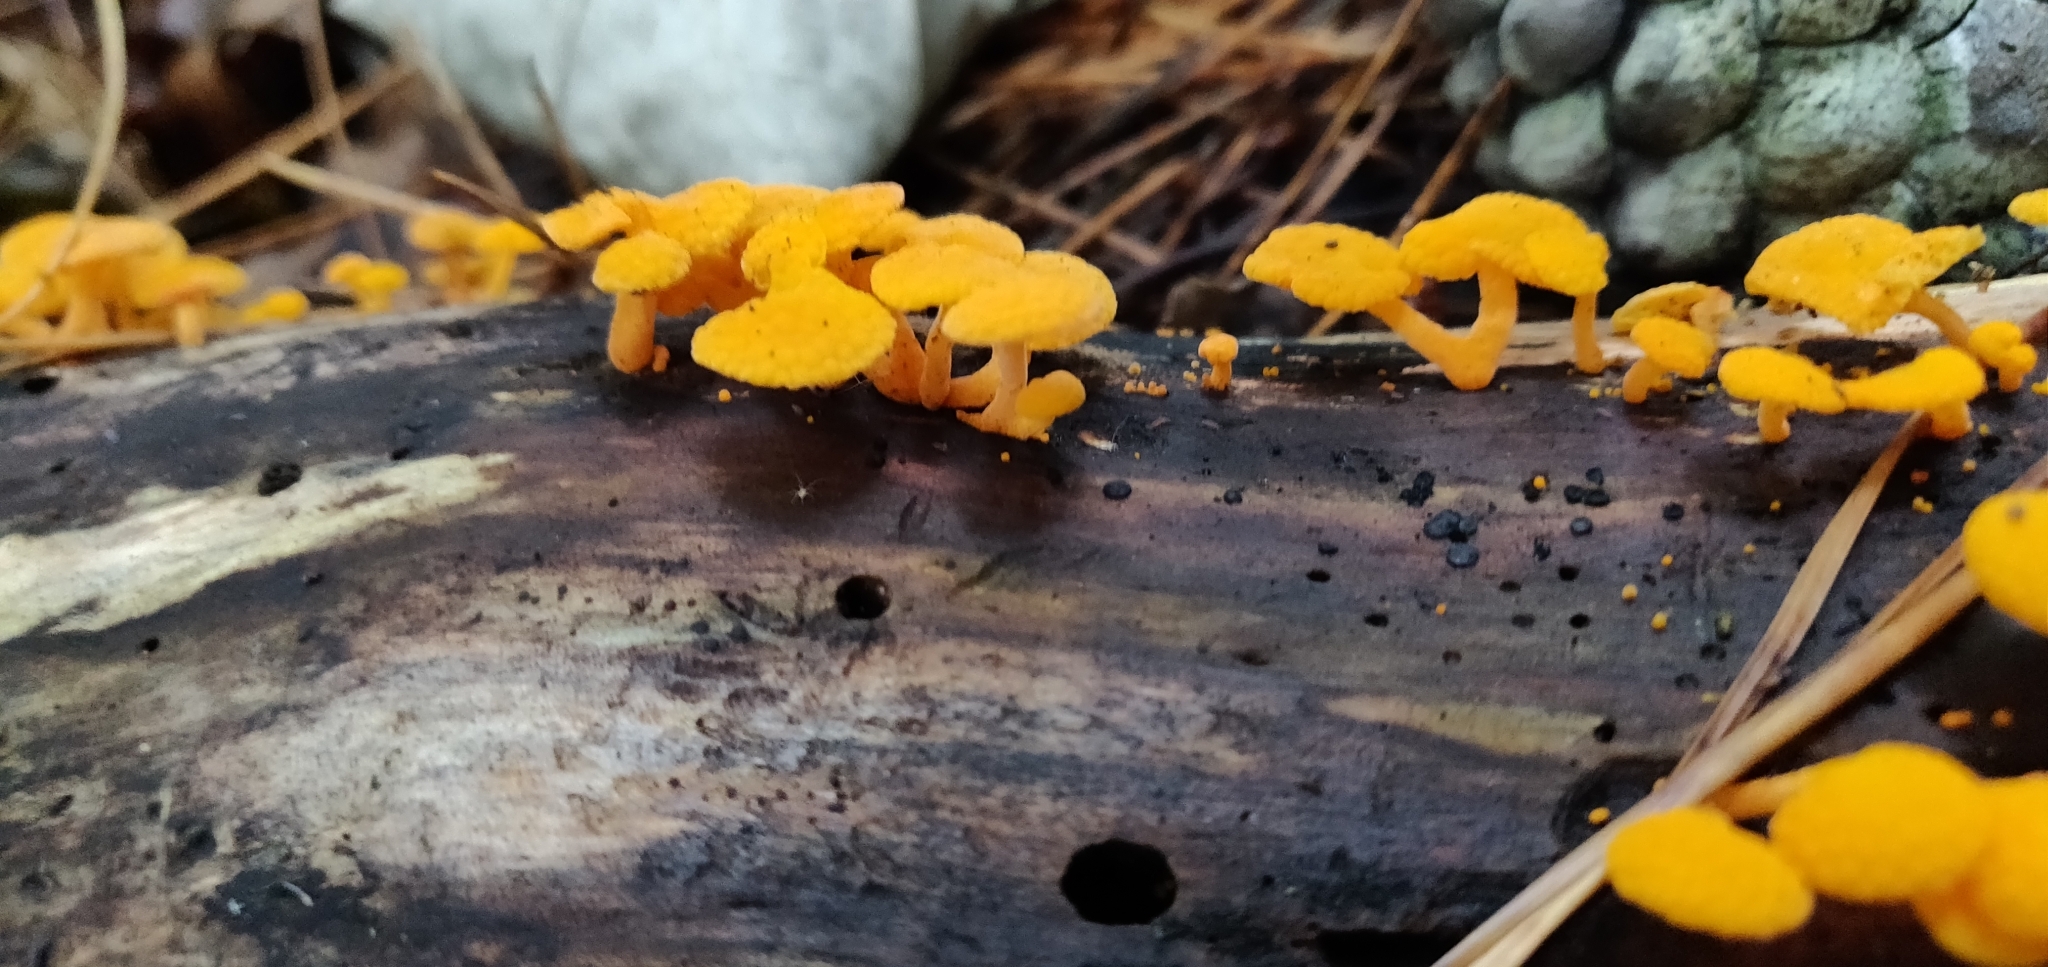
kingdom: Fungi
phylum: Basidiomycota
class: Agaricomycetes
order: Agaricales
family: Mycenaceae
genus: Favolaschia
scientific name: Favolaschia claudopus
